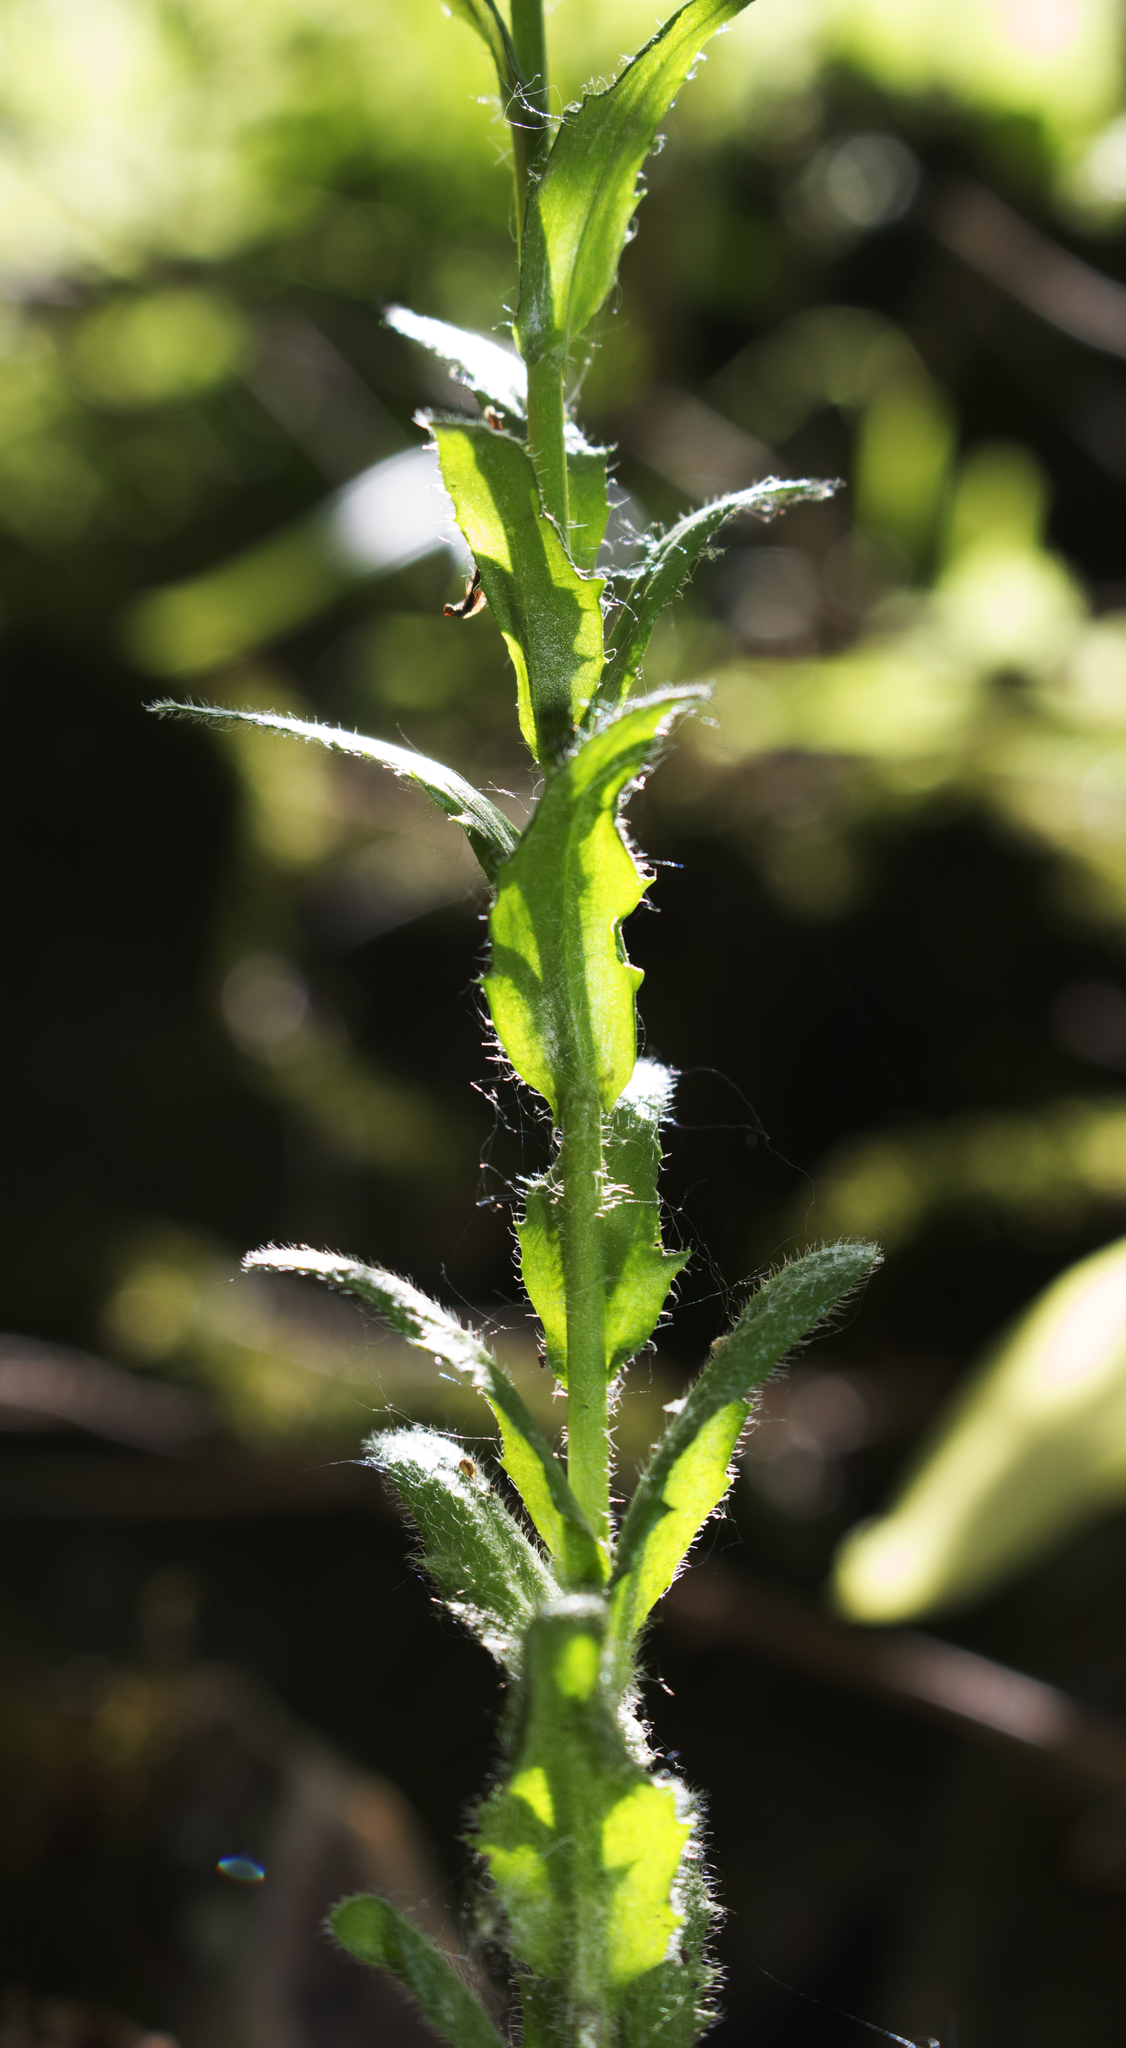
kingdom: Plantae
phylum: Tracheophyta
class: Magnoliopsida
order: Brassicales
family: Brassicaceae
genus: Arabis
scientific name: Arabis pycnocarpa
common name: Blushing rockcress
